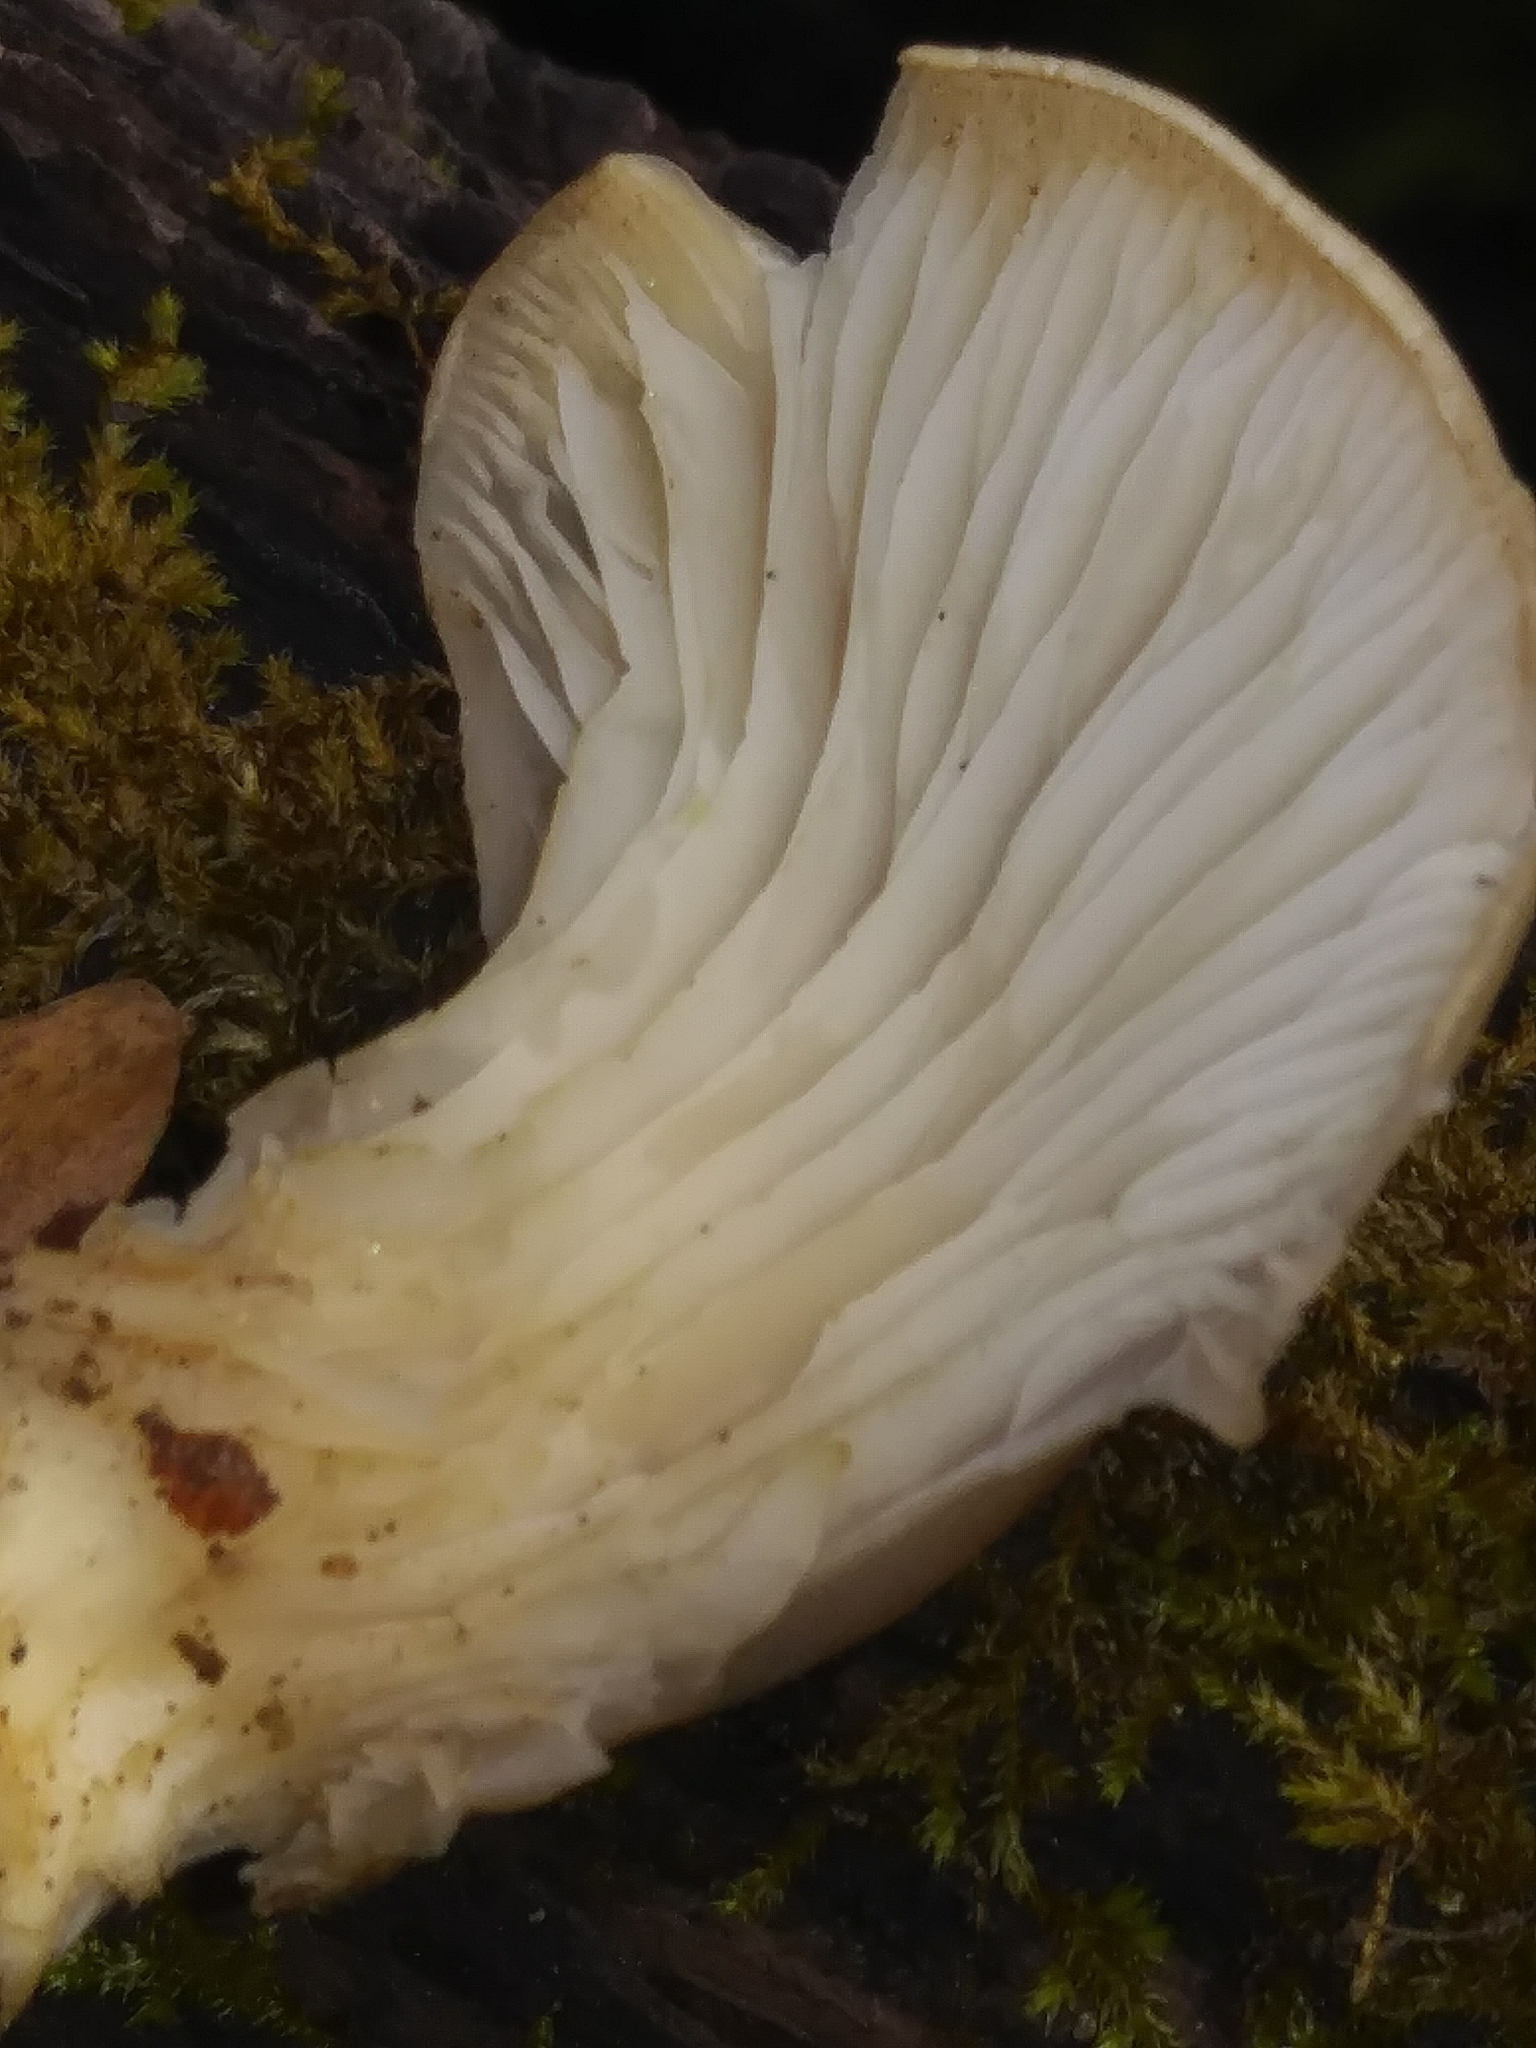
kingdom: Fungi
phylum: Basidiomycota
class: Agaricomycetes
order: Agaricales
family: Pleurotaceae
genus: Pleurotus
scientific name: Pleurotus ostreatus
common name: Oyster mushroom
